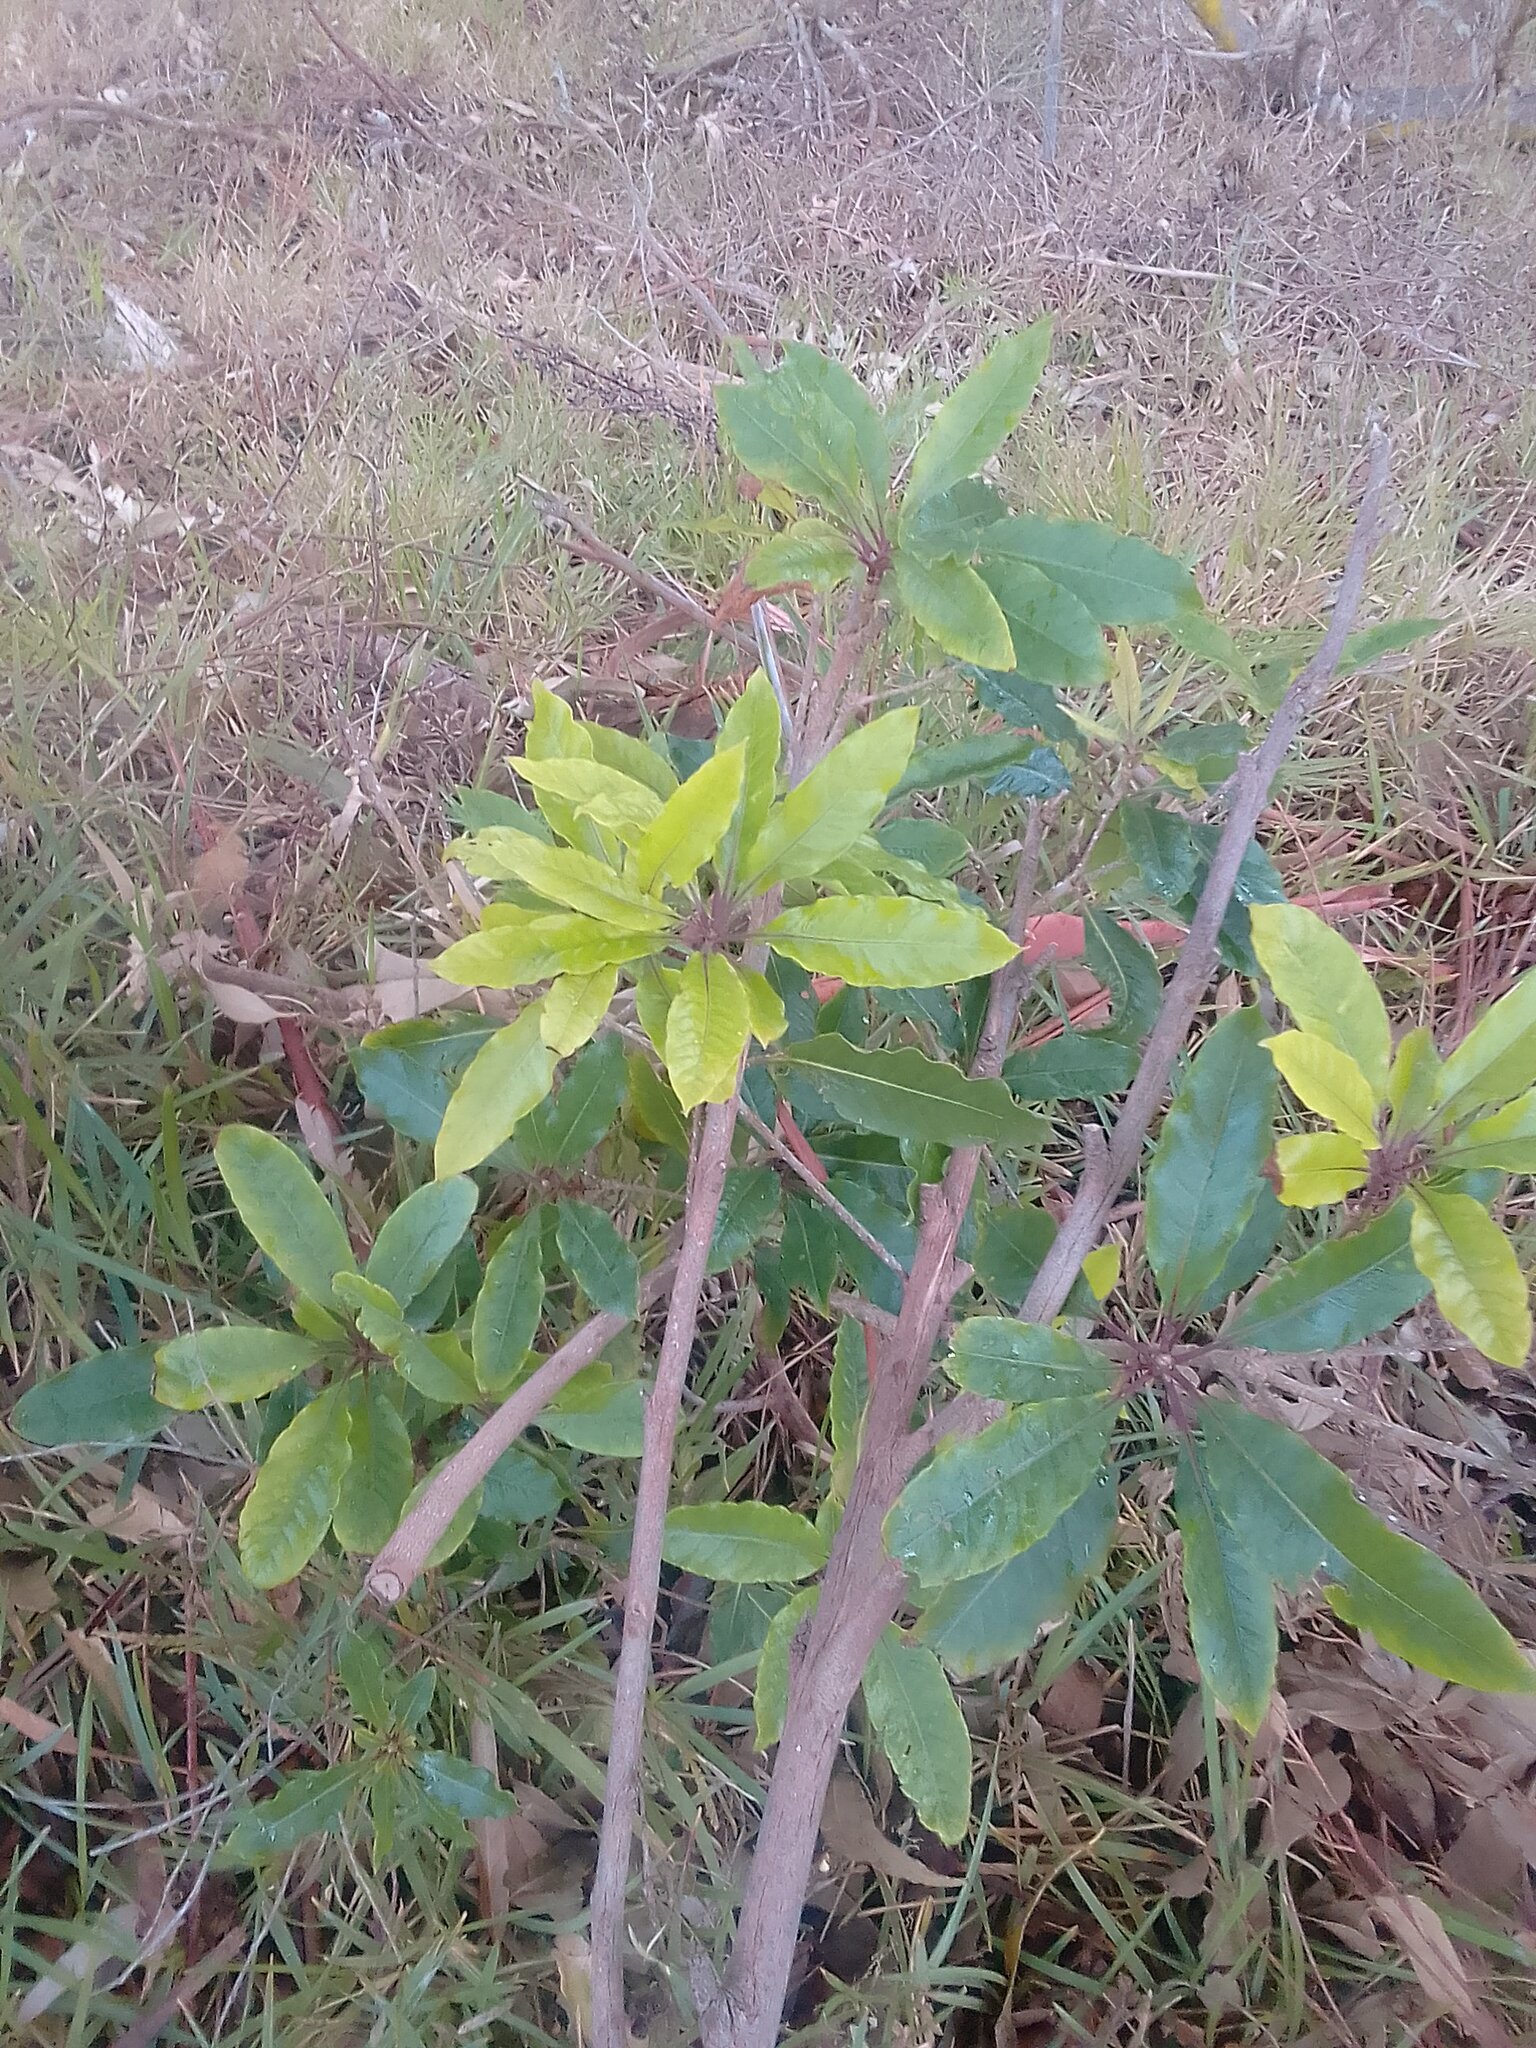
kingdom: Plantae
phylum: Tracheophyta
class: Magnoliopsida
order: Apiales
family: Pittosporaceae
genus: Pittosporum
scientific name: Pittosporum undulatum
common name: Australian cheesewood
